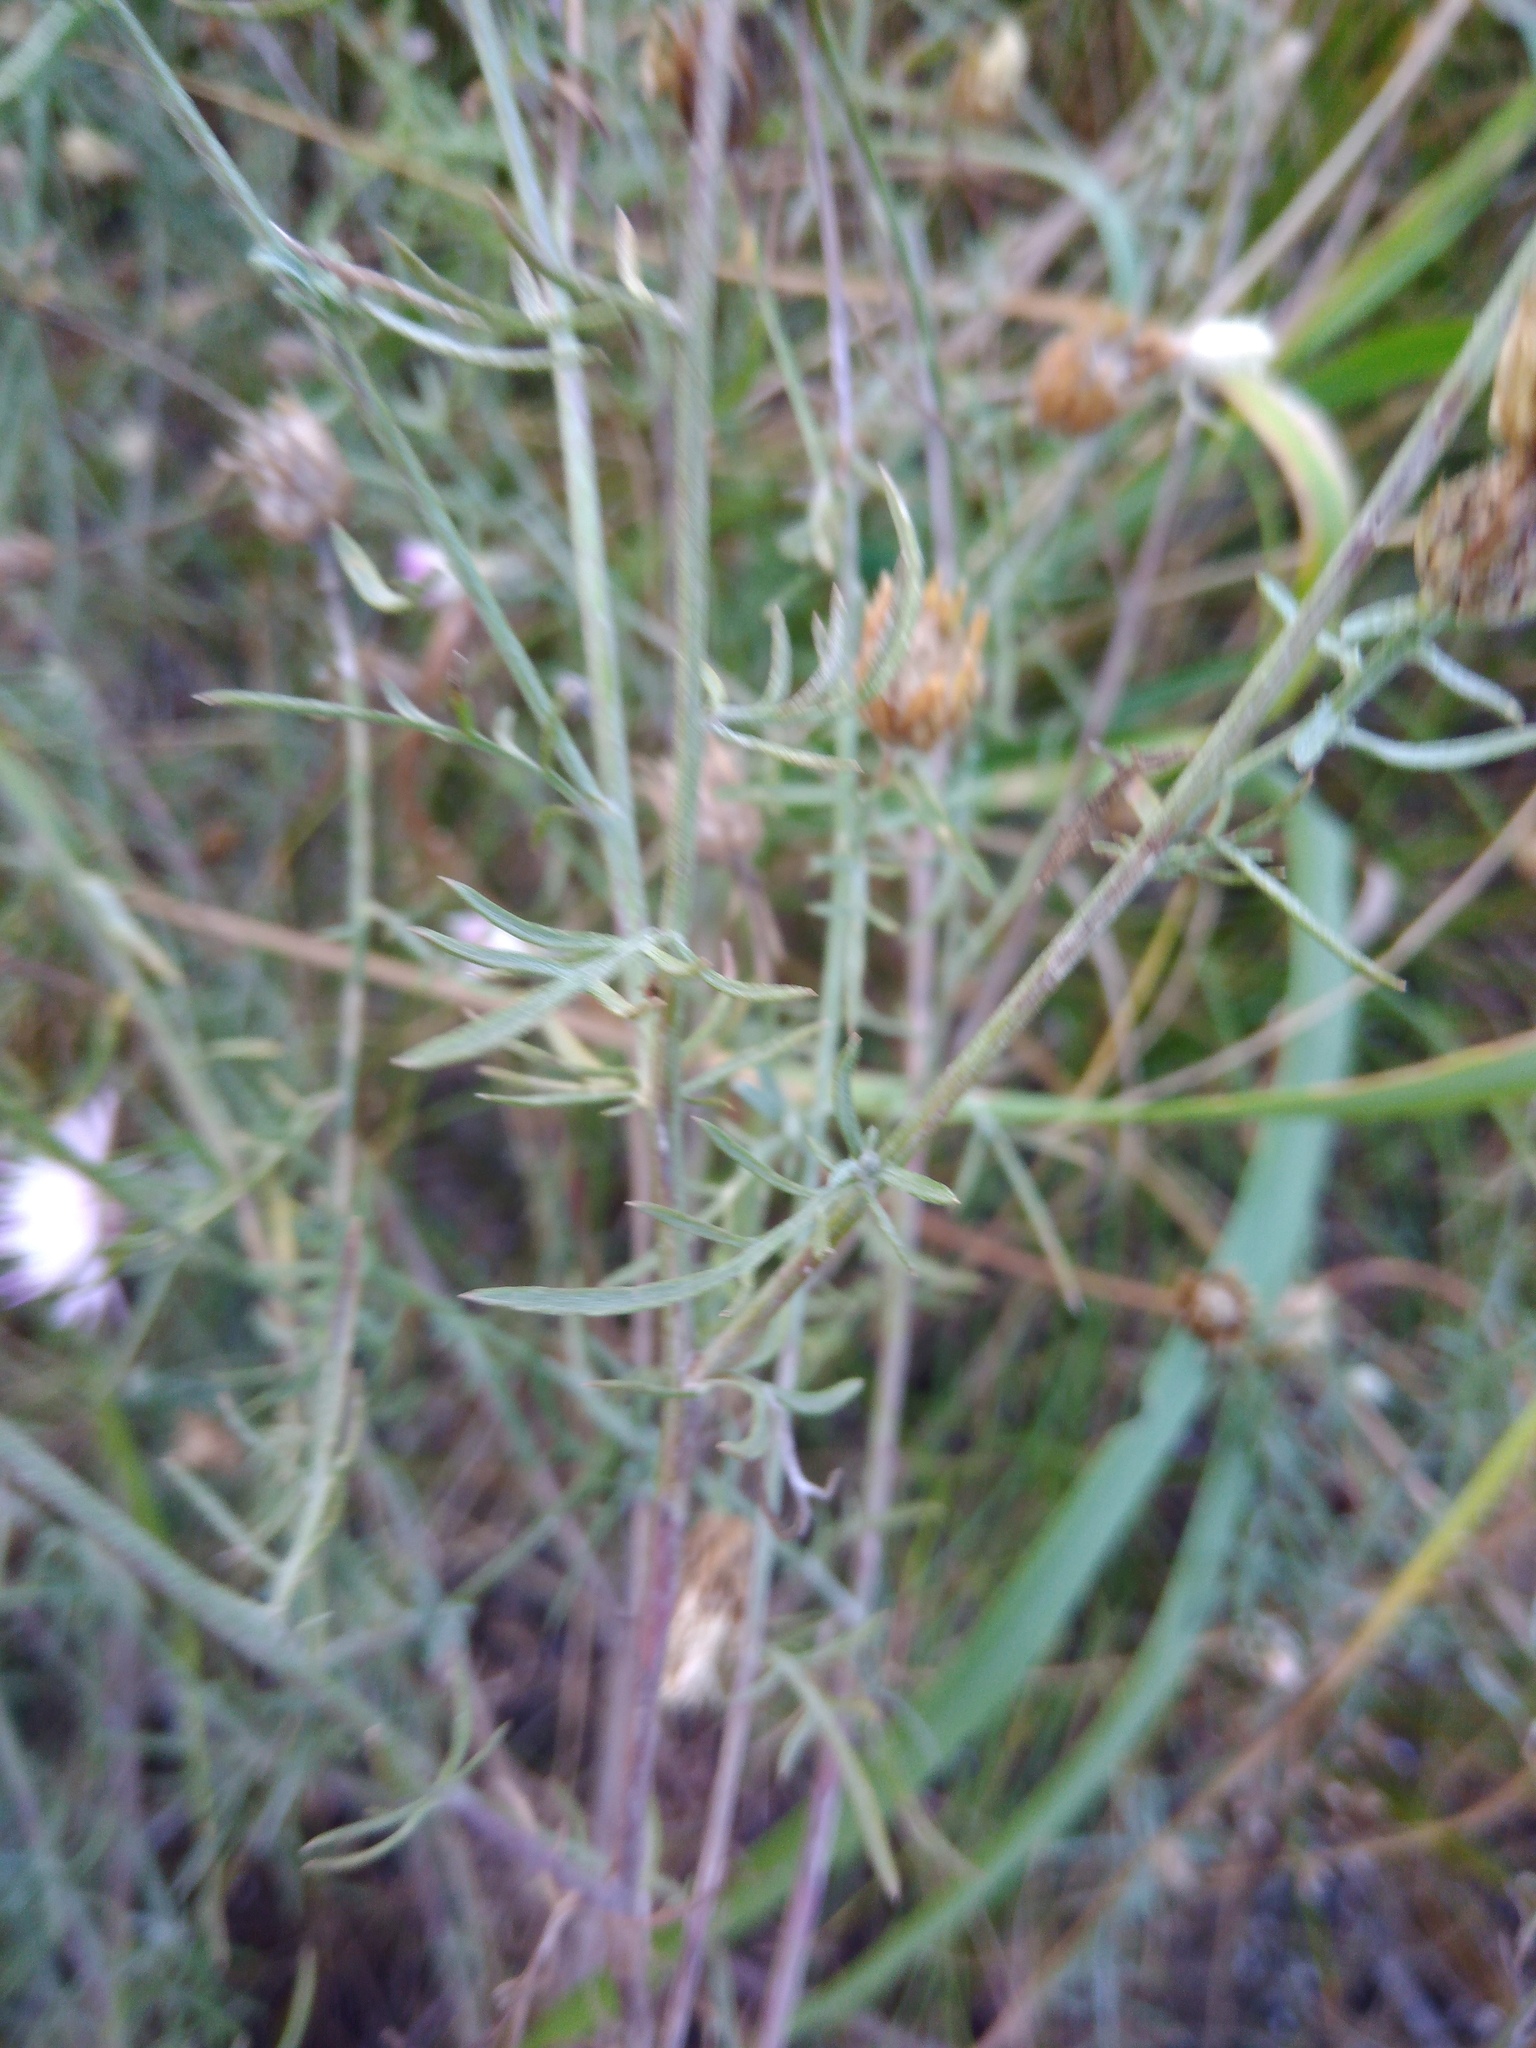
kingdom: Plantae
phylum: Tracheophyta
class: Magnoliopsida
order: Asterales
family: Asteraceae
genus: Centaurea
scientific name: Centaurea borysthenica
